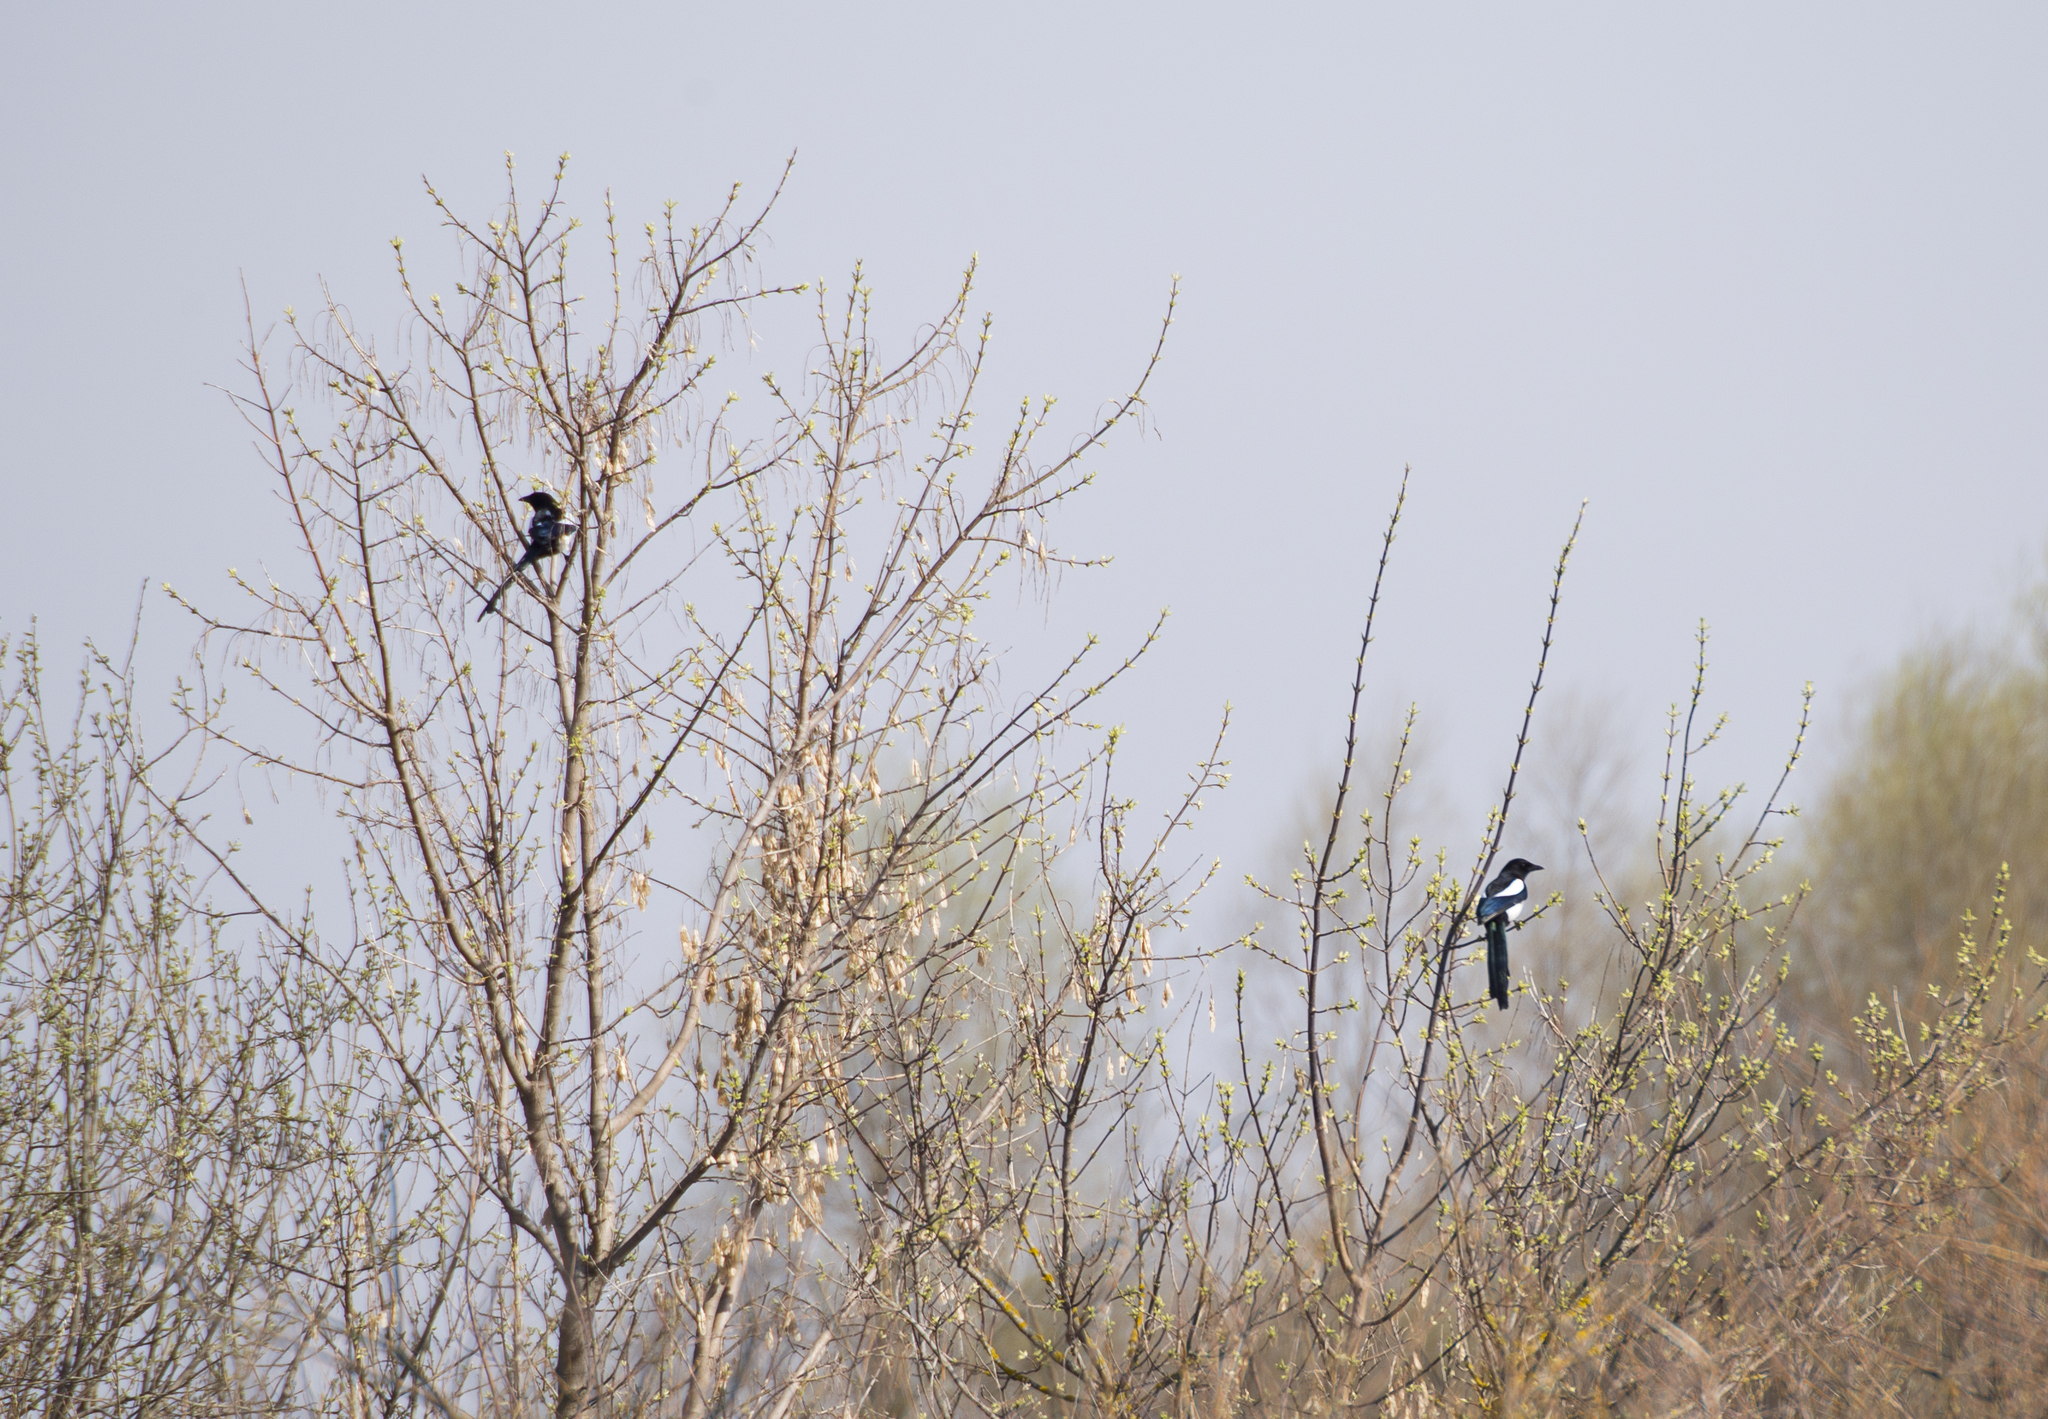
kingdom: Animalia
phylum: Chordata
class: Aves
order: Passeriformes
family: Corvidae
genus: Pica
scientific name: Pica pica
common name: Eurasian magpie
